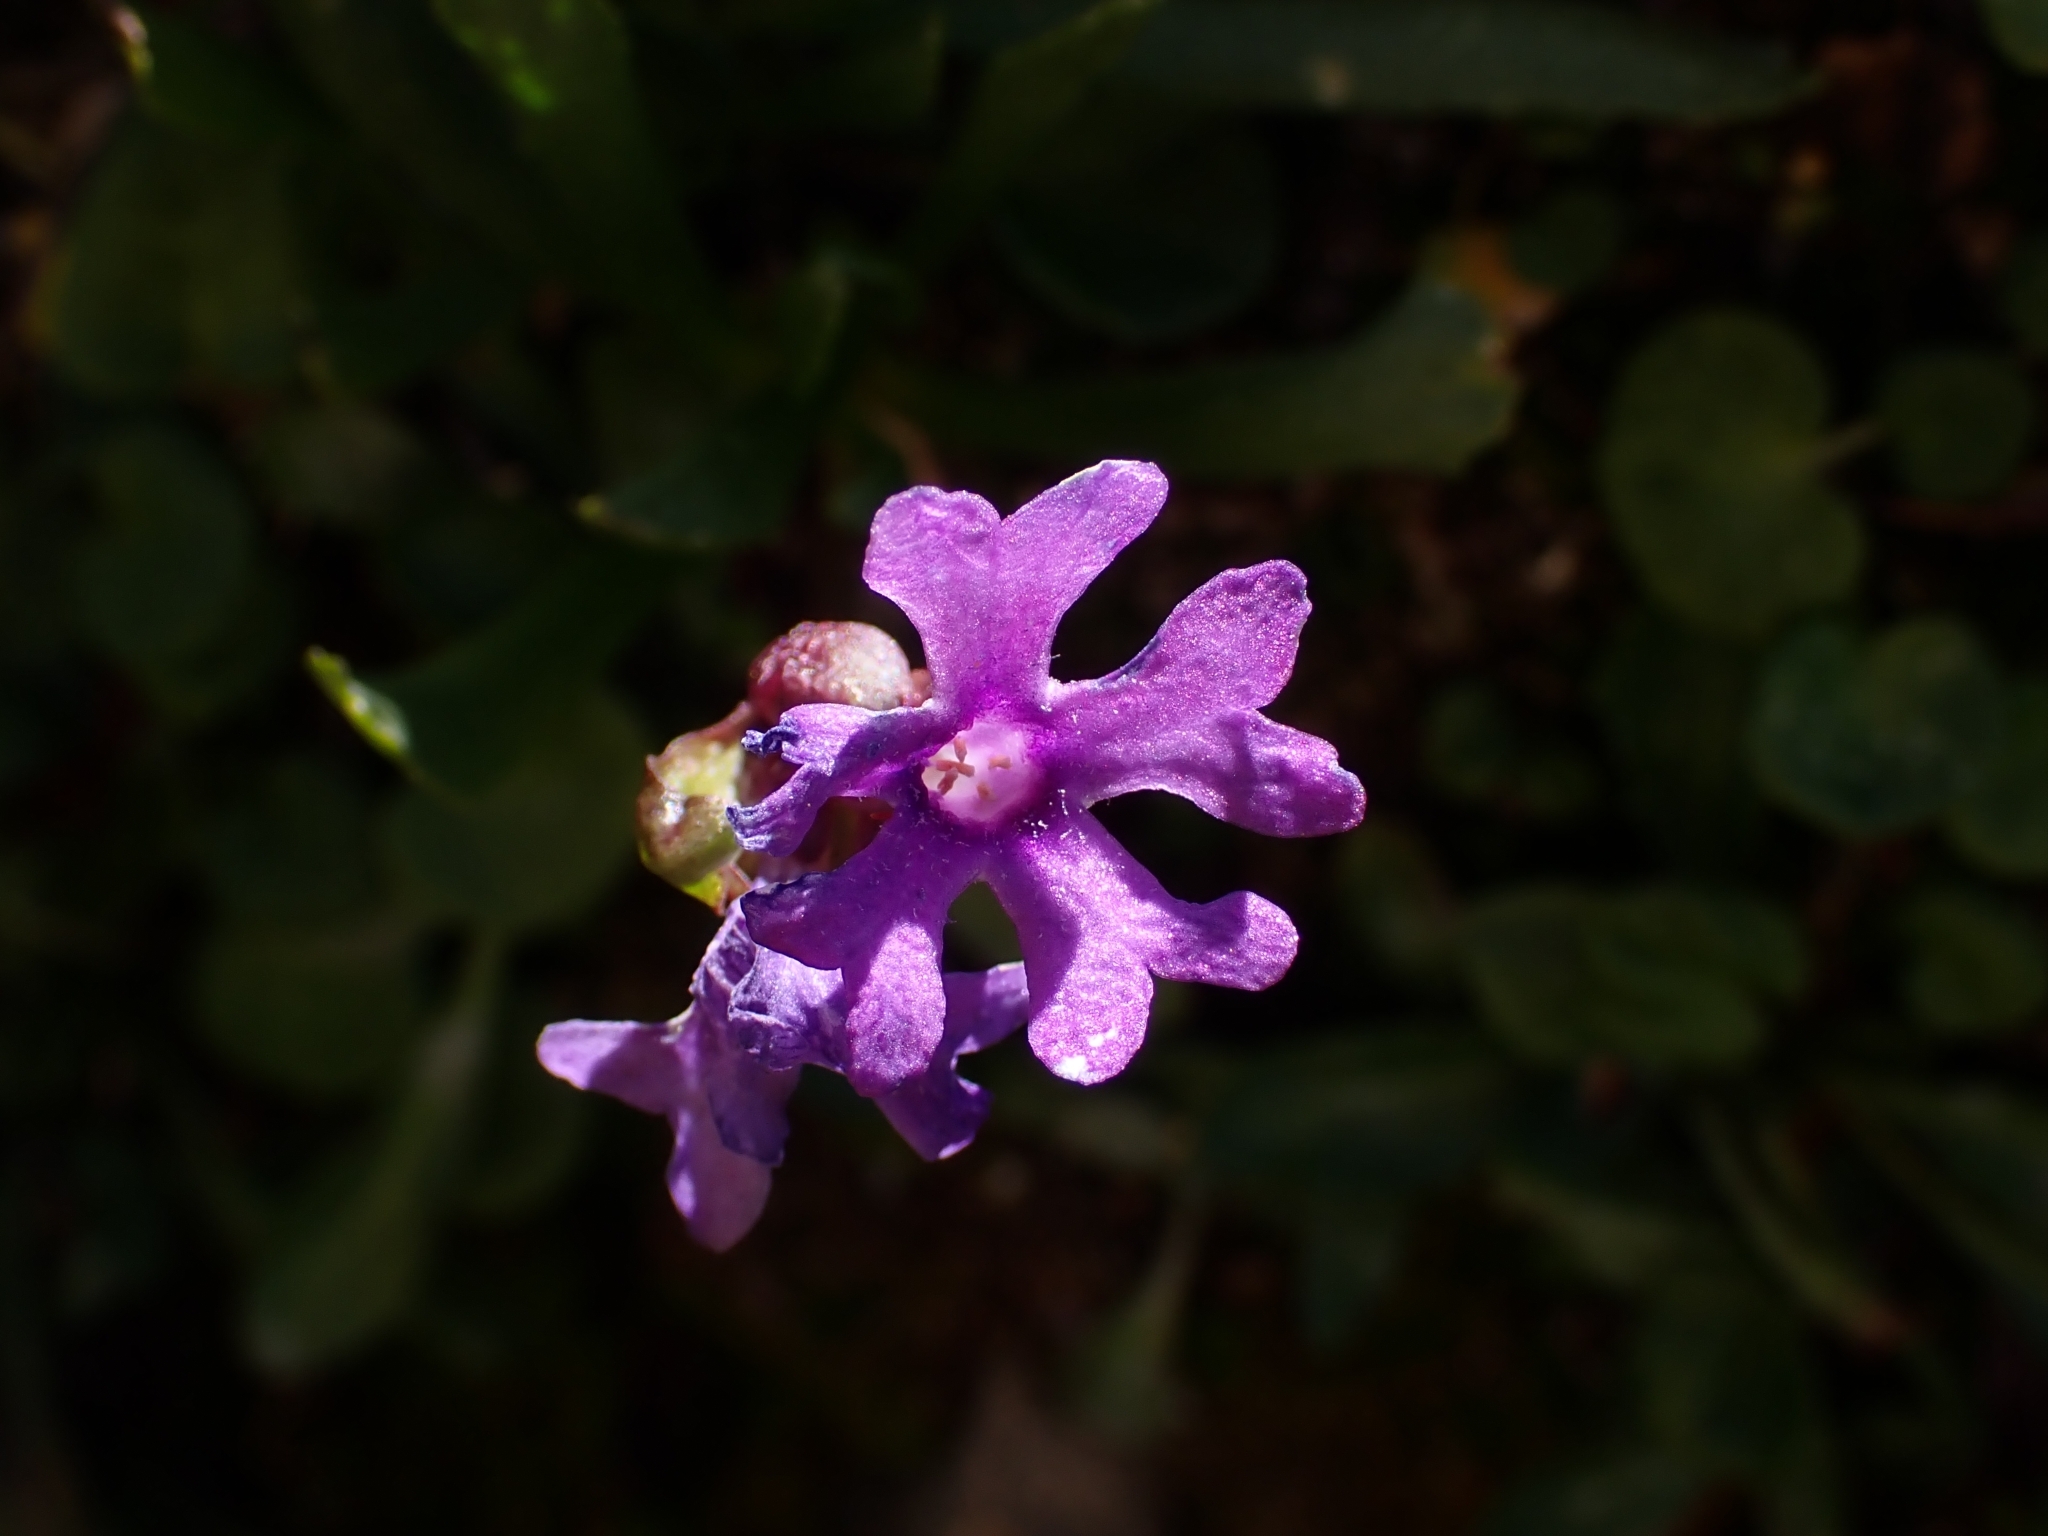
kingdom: Plantae
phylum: Tracheophyta
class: Magnoliopsida
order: Ericales
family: Primulaceae
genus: Primula
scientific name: Primula glutinosa
